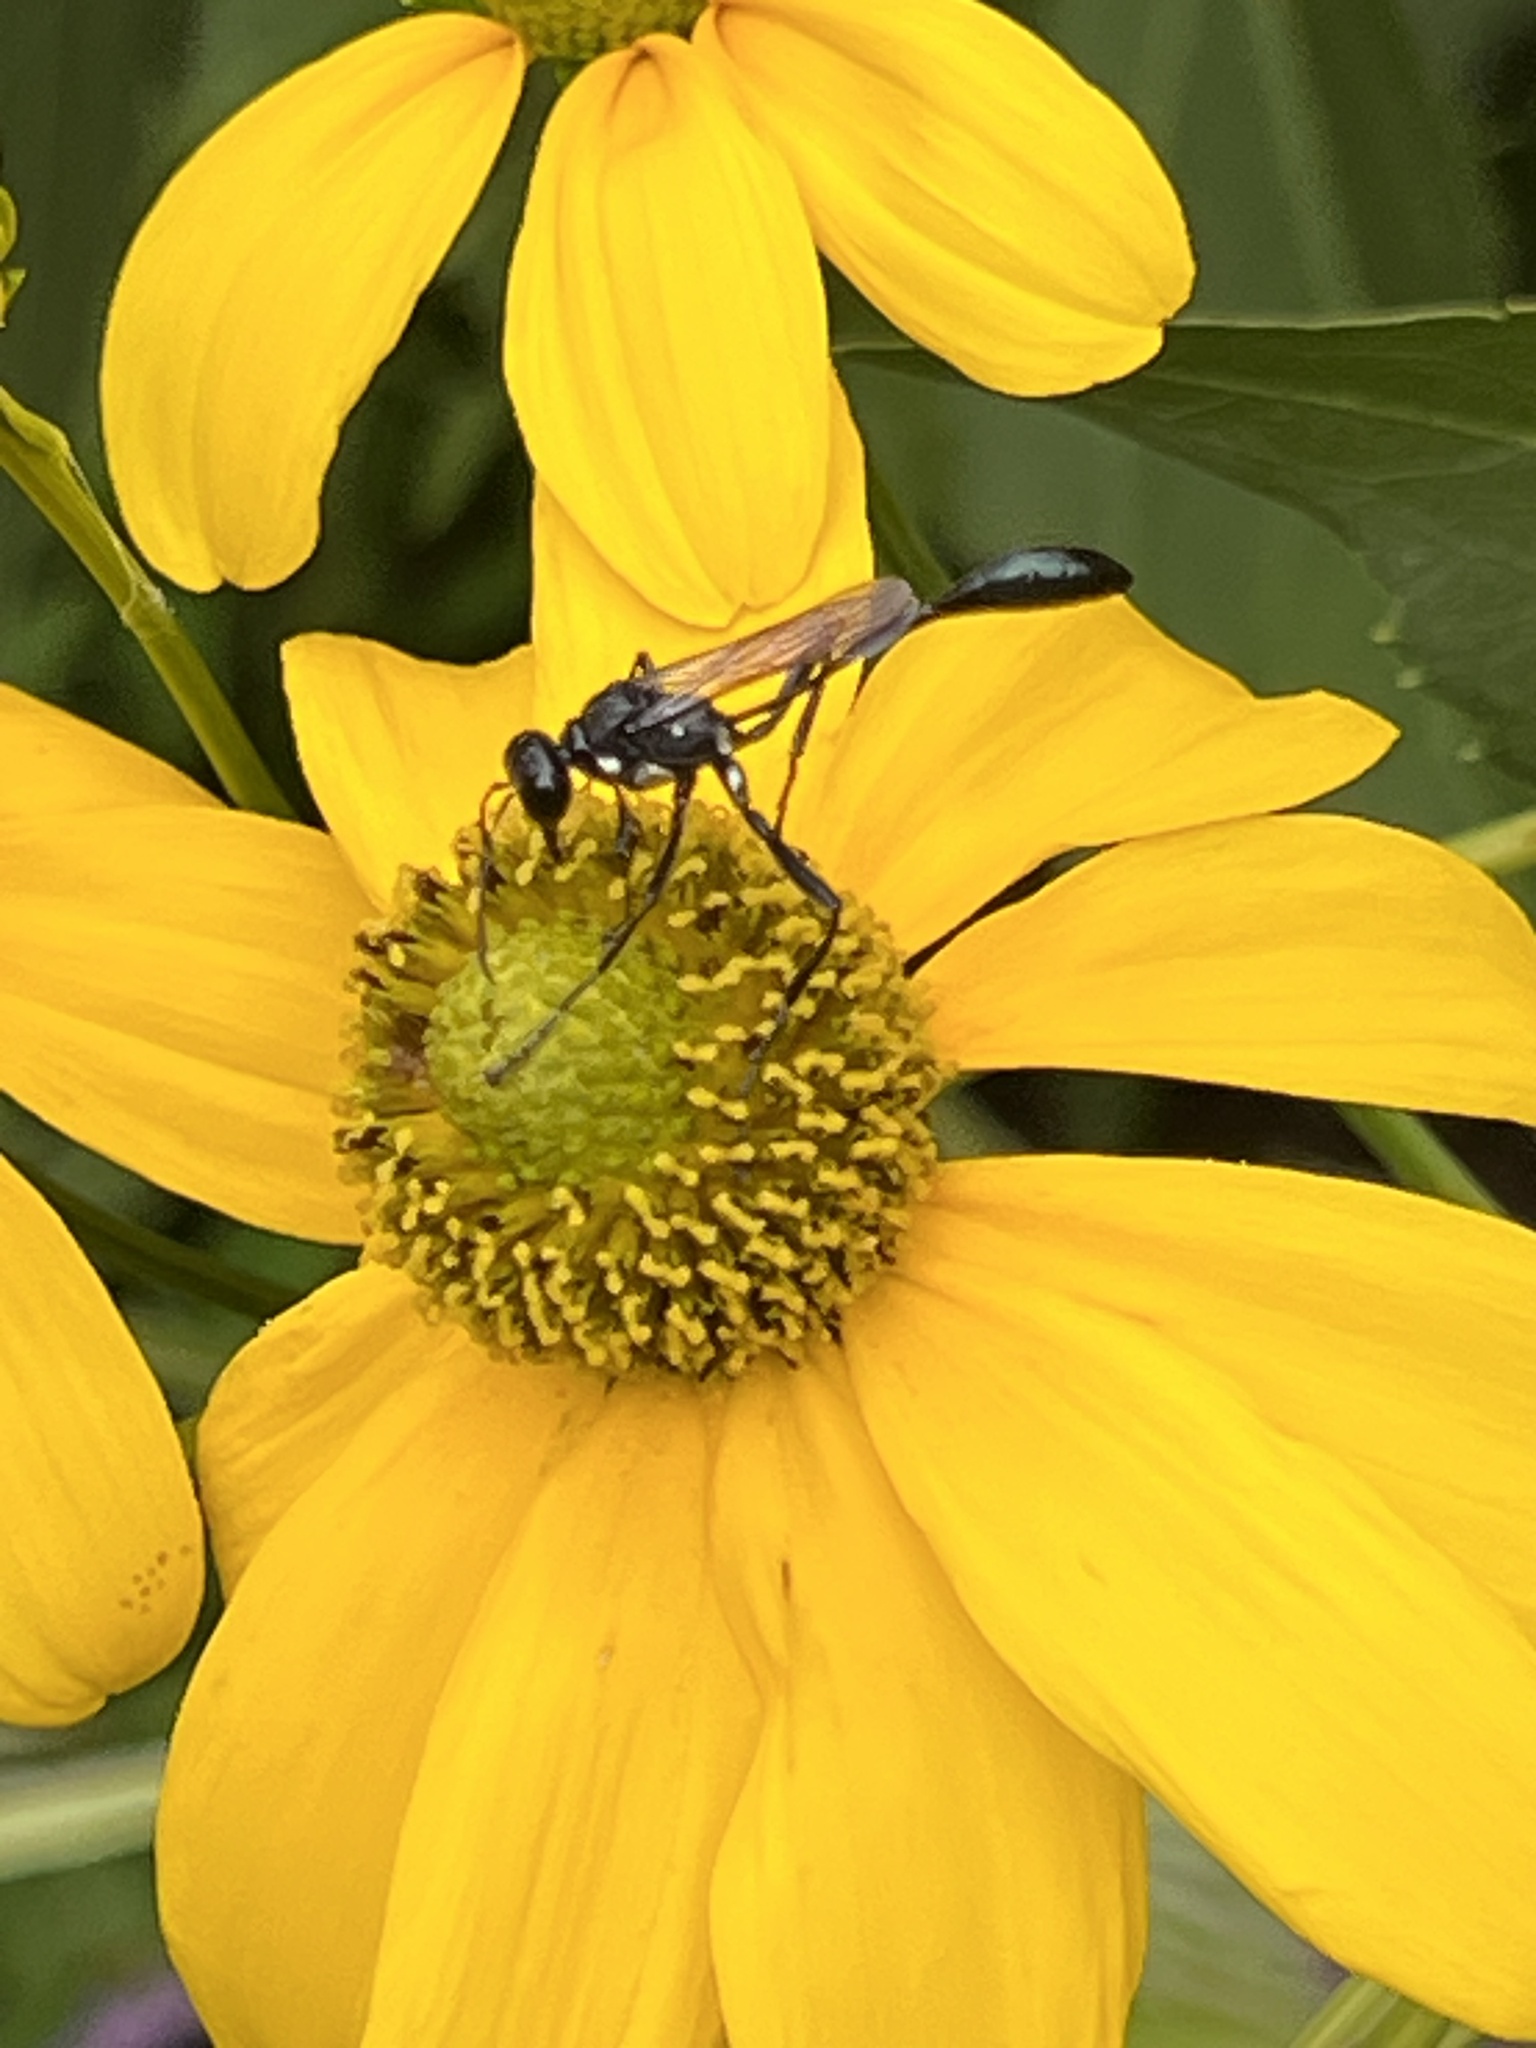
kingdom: Animalia
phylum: Arthropoda
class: Insecta
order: Hymenoptera
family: Sphecidae
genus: Eremnophila
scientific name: Eremnophila aureonotata
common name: Gold-marked thread-waisted wasp
